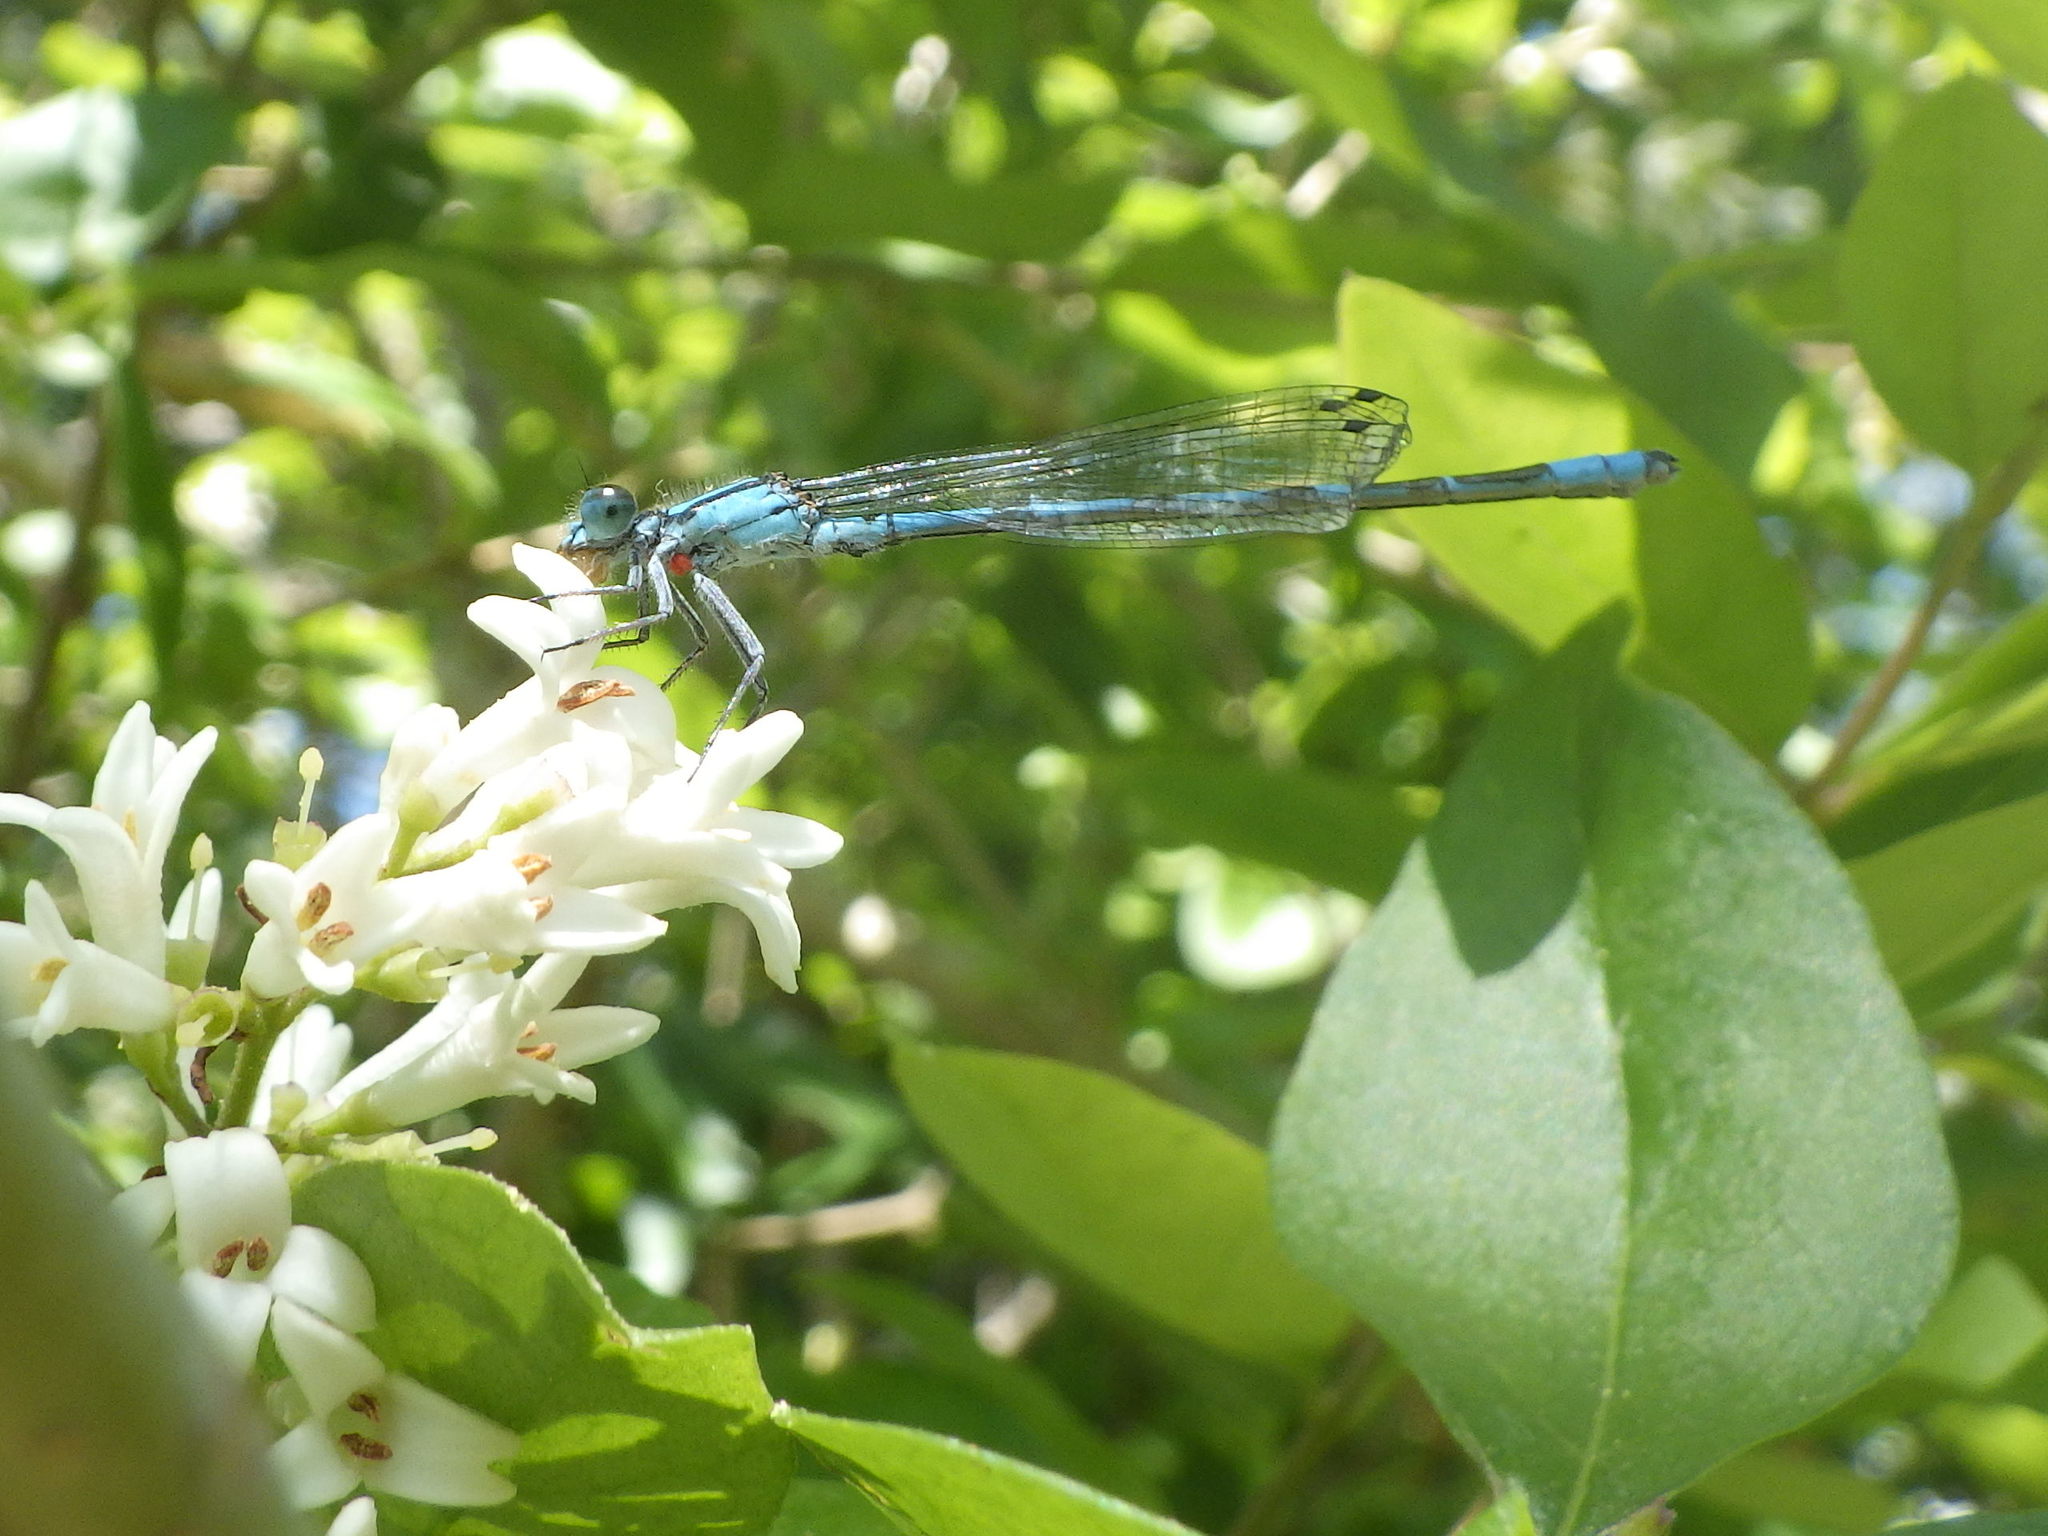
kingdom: Animalia
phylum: Arthropoda
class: Insecta
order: Odonata
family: Coenagrionidae
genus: Enallagma
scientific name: Enallagma hageni
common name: Hagen's bluet
